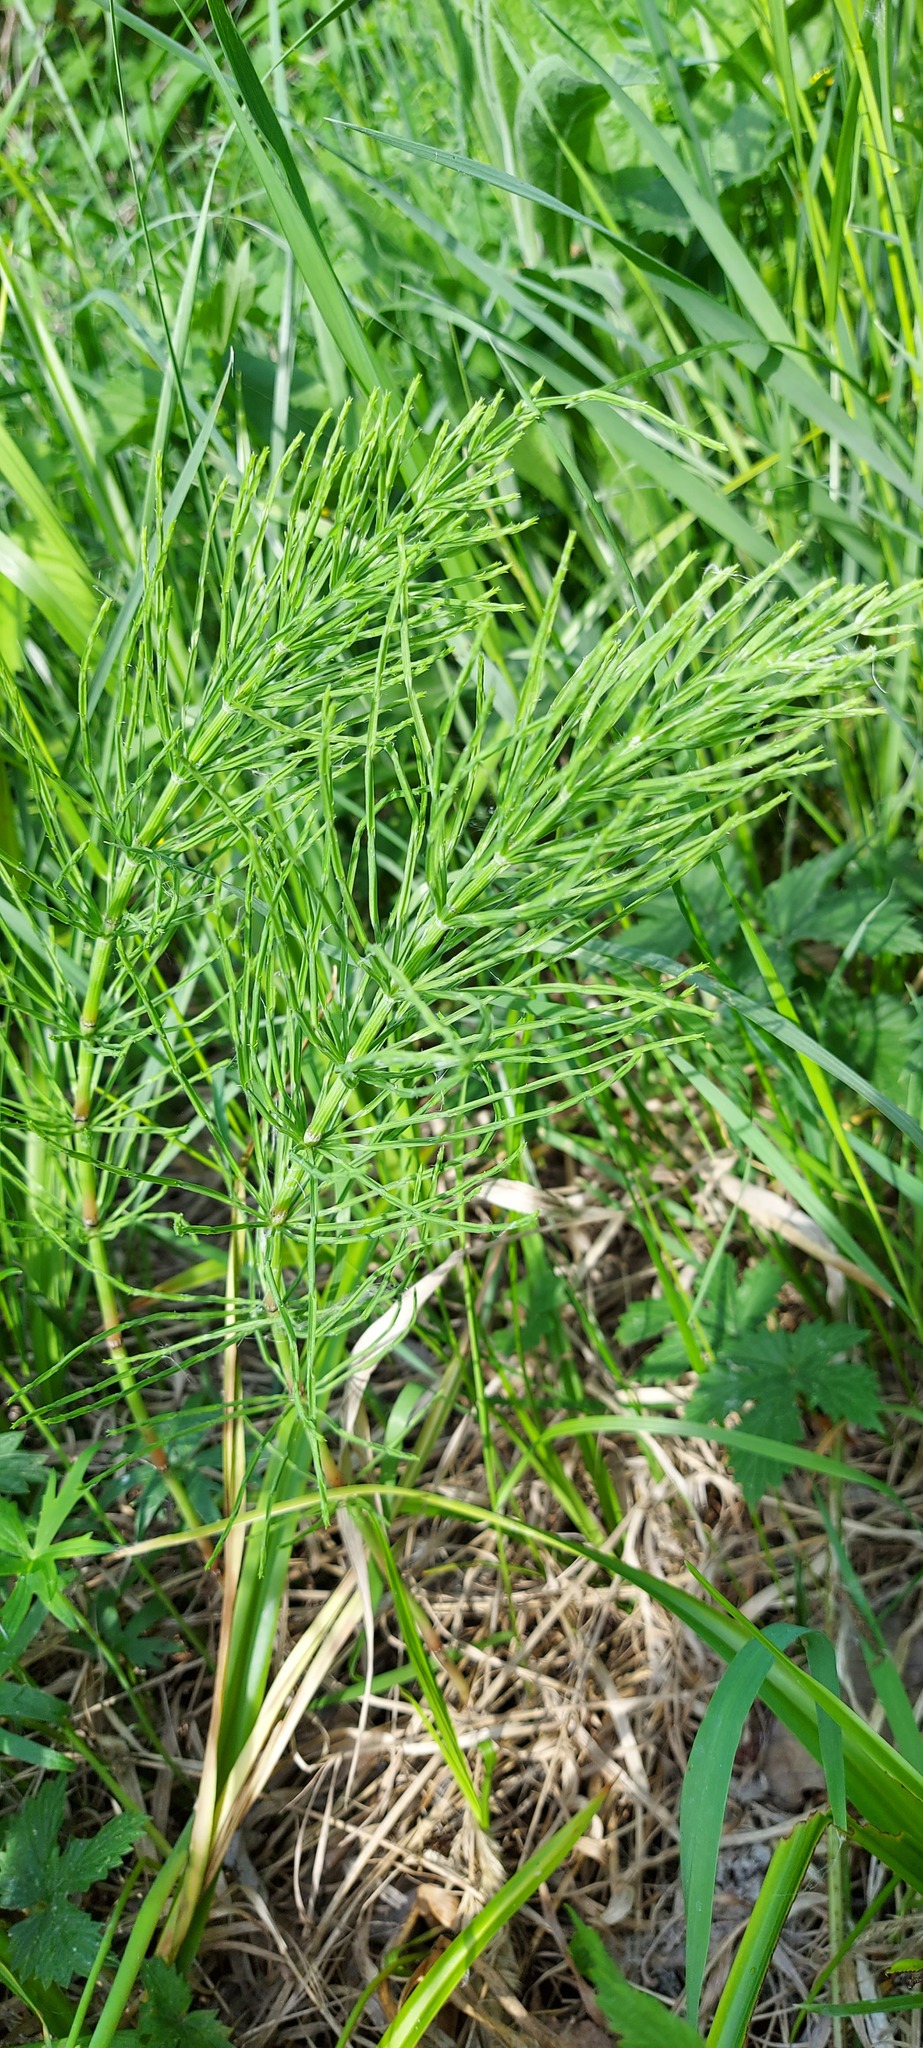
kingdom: Plantae
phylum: Tracheophyta
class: Polypodiopsida
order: Equisetales
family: Equisetaceae
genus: Equisetum
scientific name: Equisetum arvense
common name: Field horsetail
